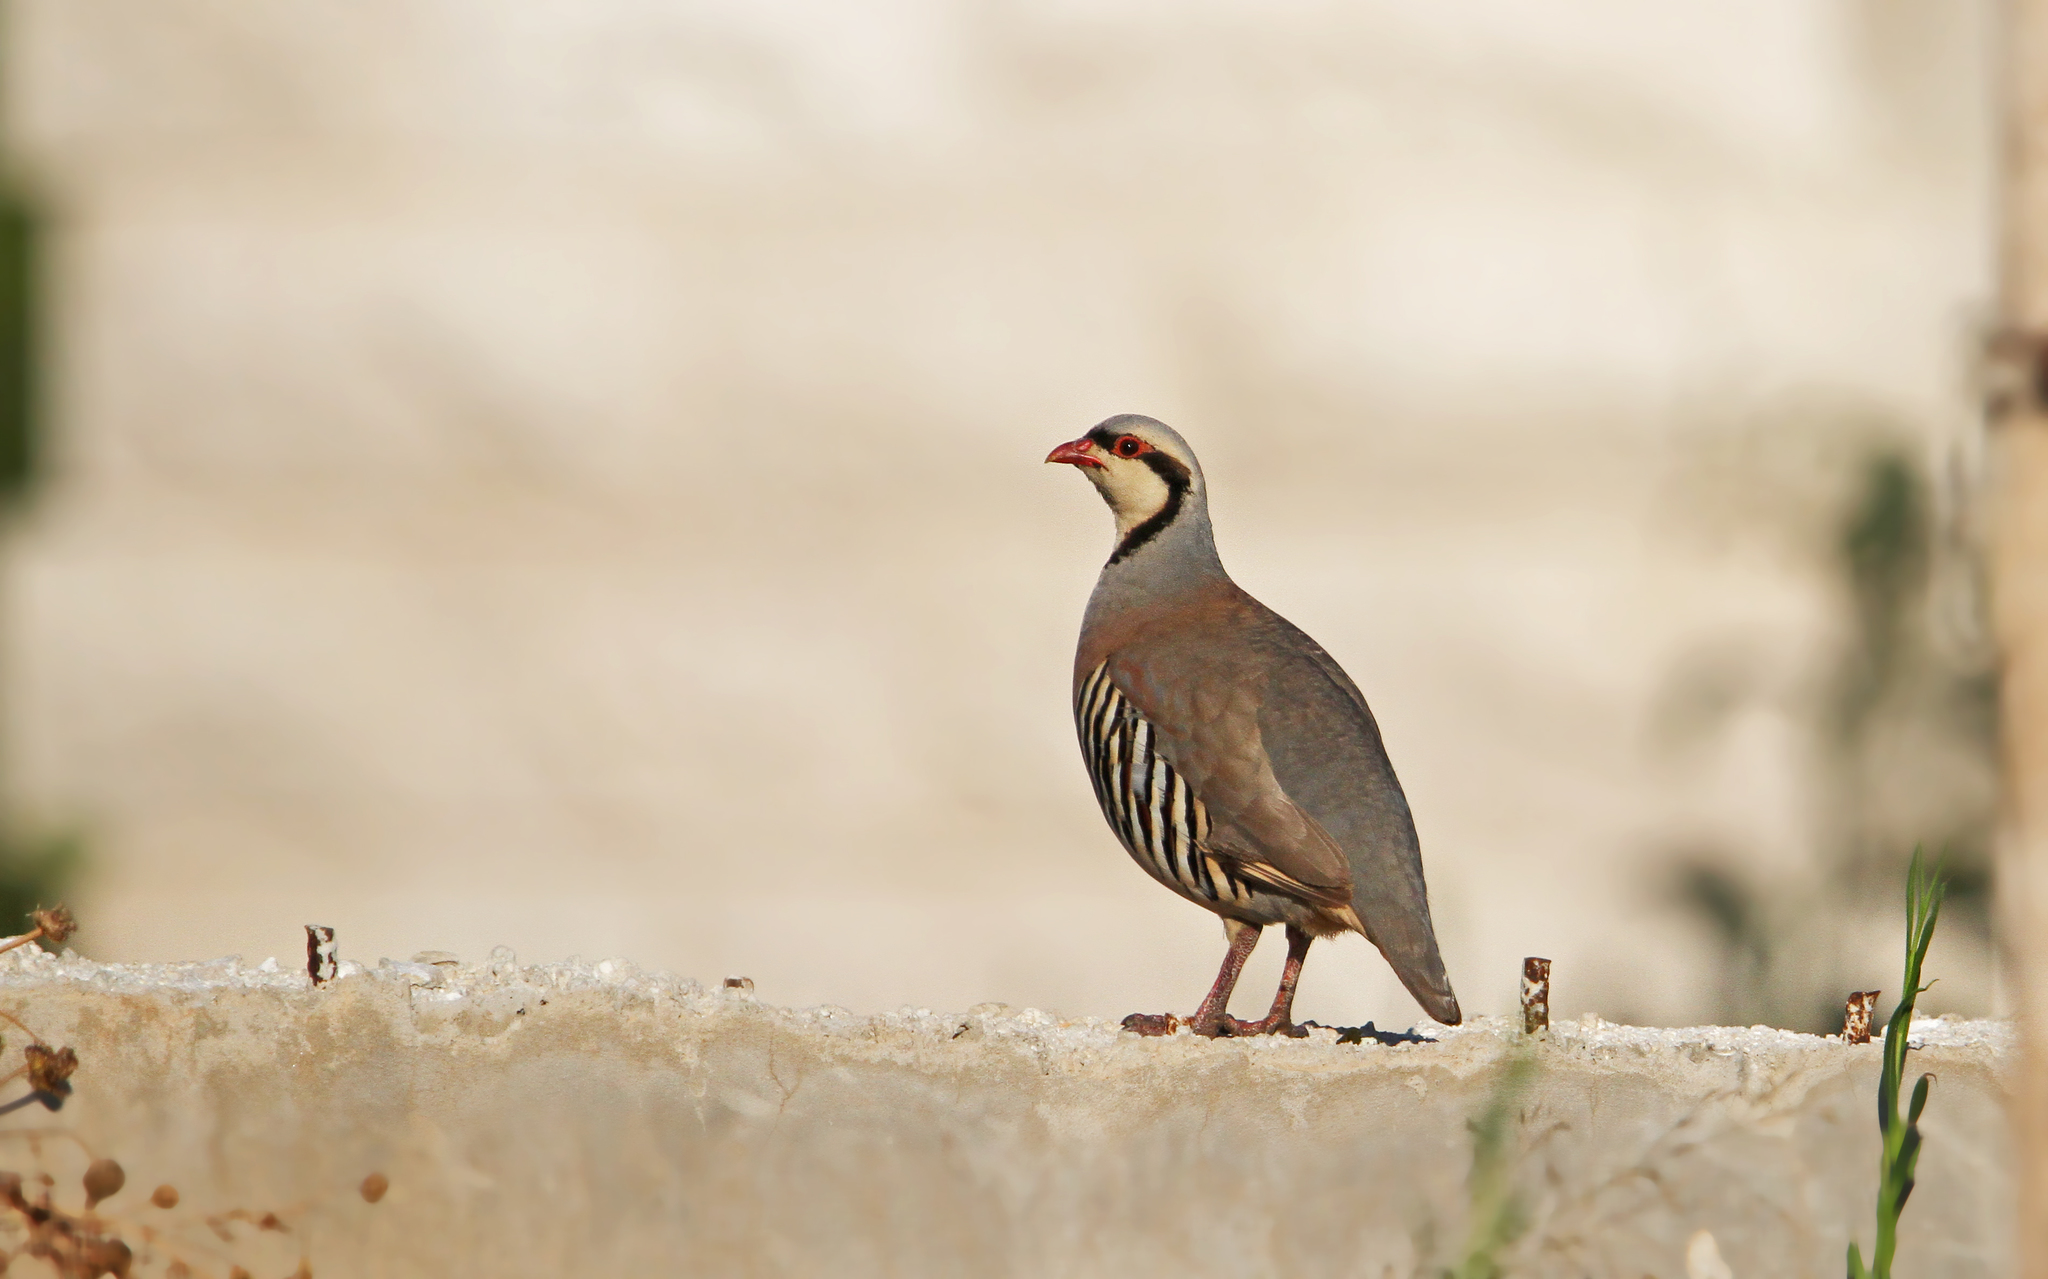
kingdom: Animalia
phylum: Chordata
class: Aves
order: Galliformes
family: Phasianidae
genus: Alectoris
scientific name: Alectoris chukar
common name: Chukar
